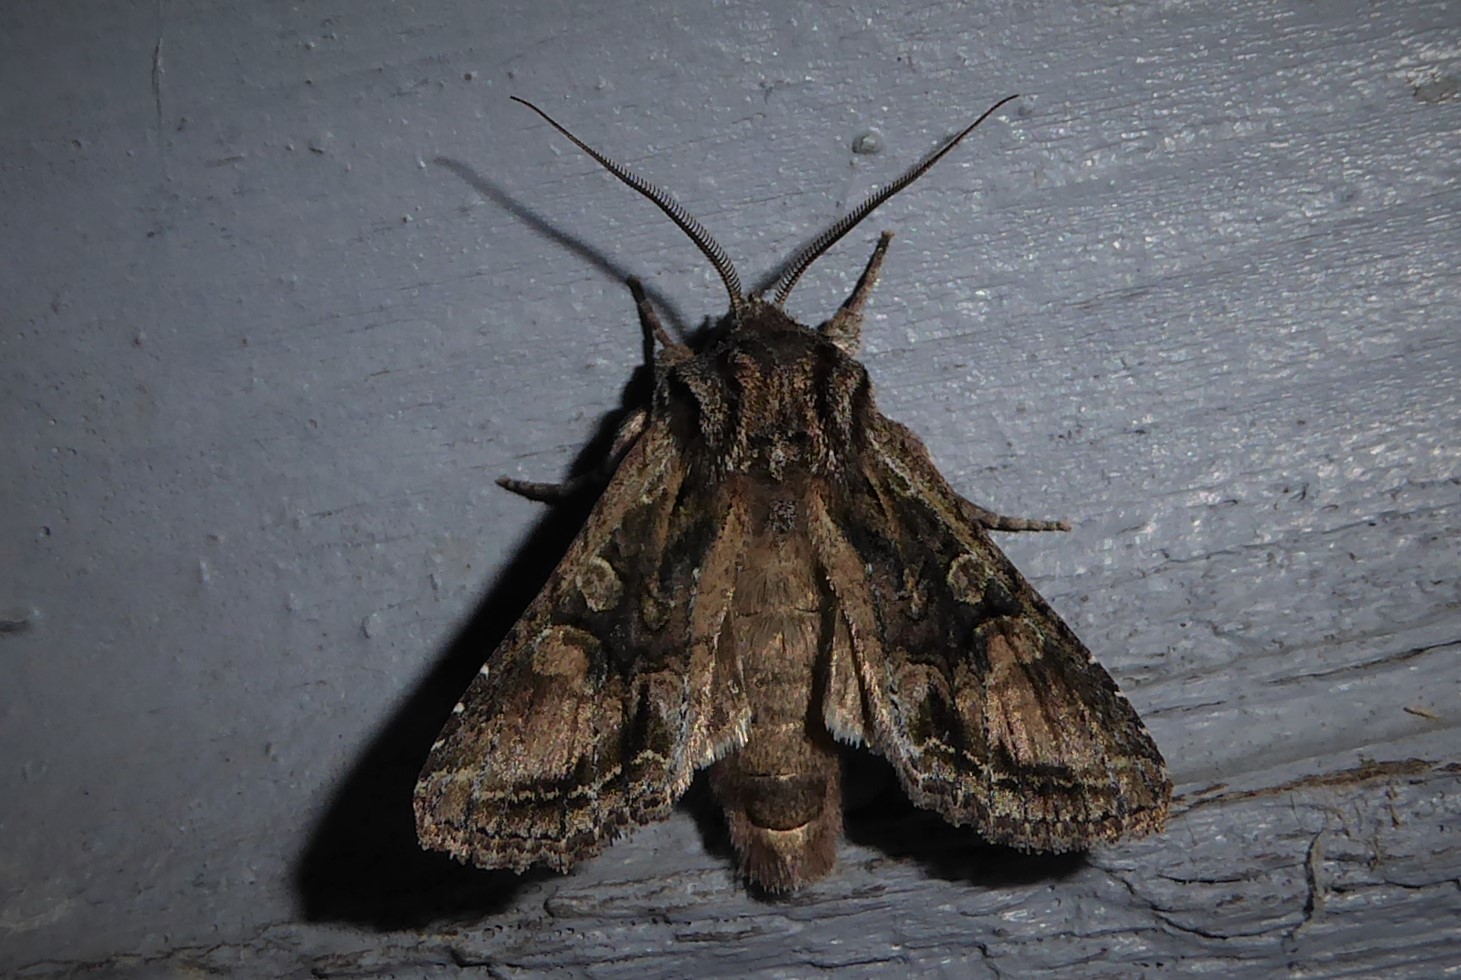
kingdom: Animalia
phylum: Arthropoda
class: Insecta
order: Lepidoptera
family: Noctuidae
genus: Ichneutica
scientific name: Ichneutica mutans
